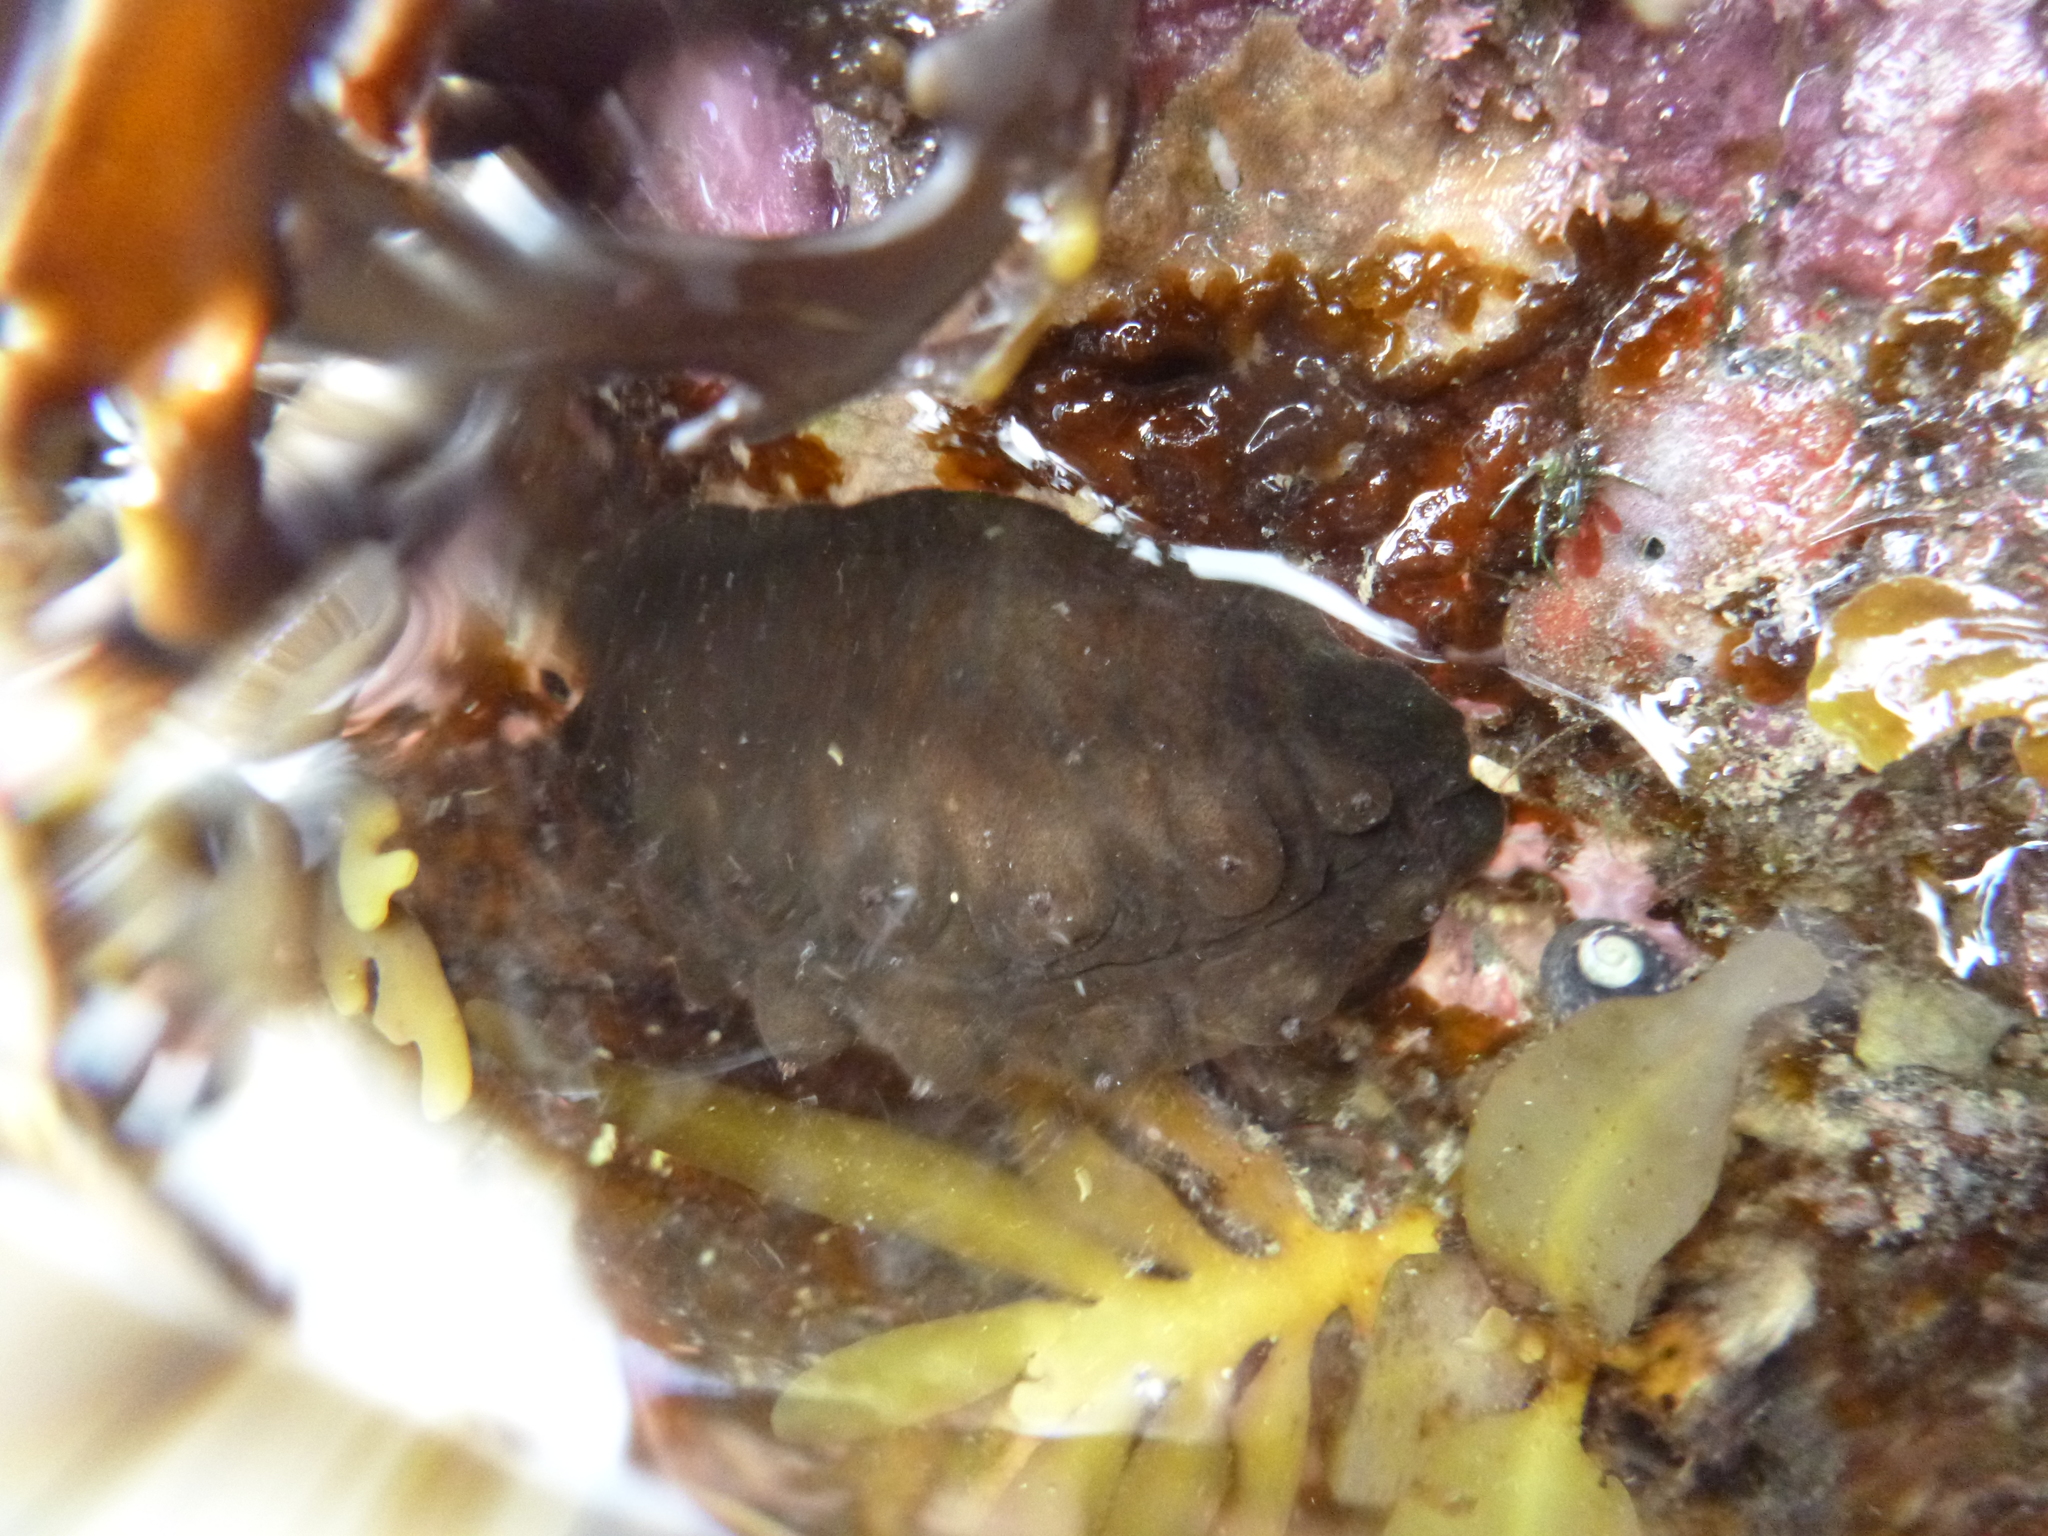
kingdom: Animalia
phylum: Mollusca
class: Polyplacophora
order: Chitonida
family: Acanthochitonidae
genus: Cryptoconchus
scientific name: Cryptoconchus porosus
